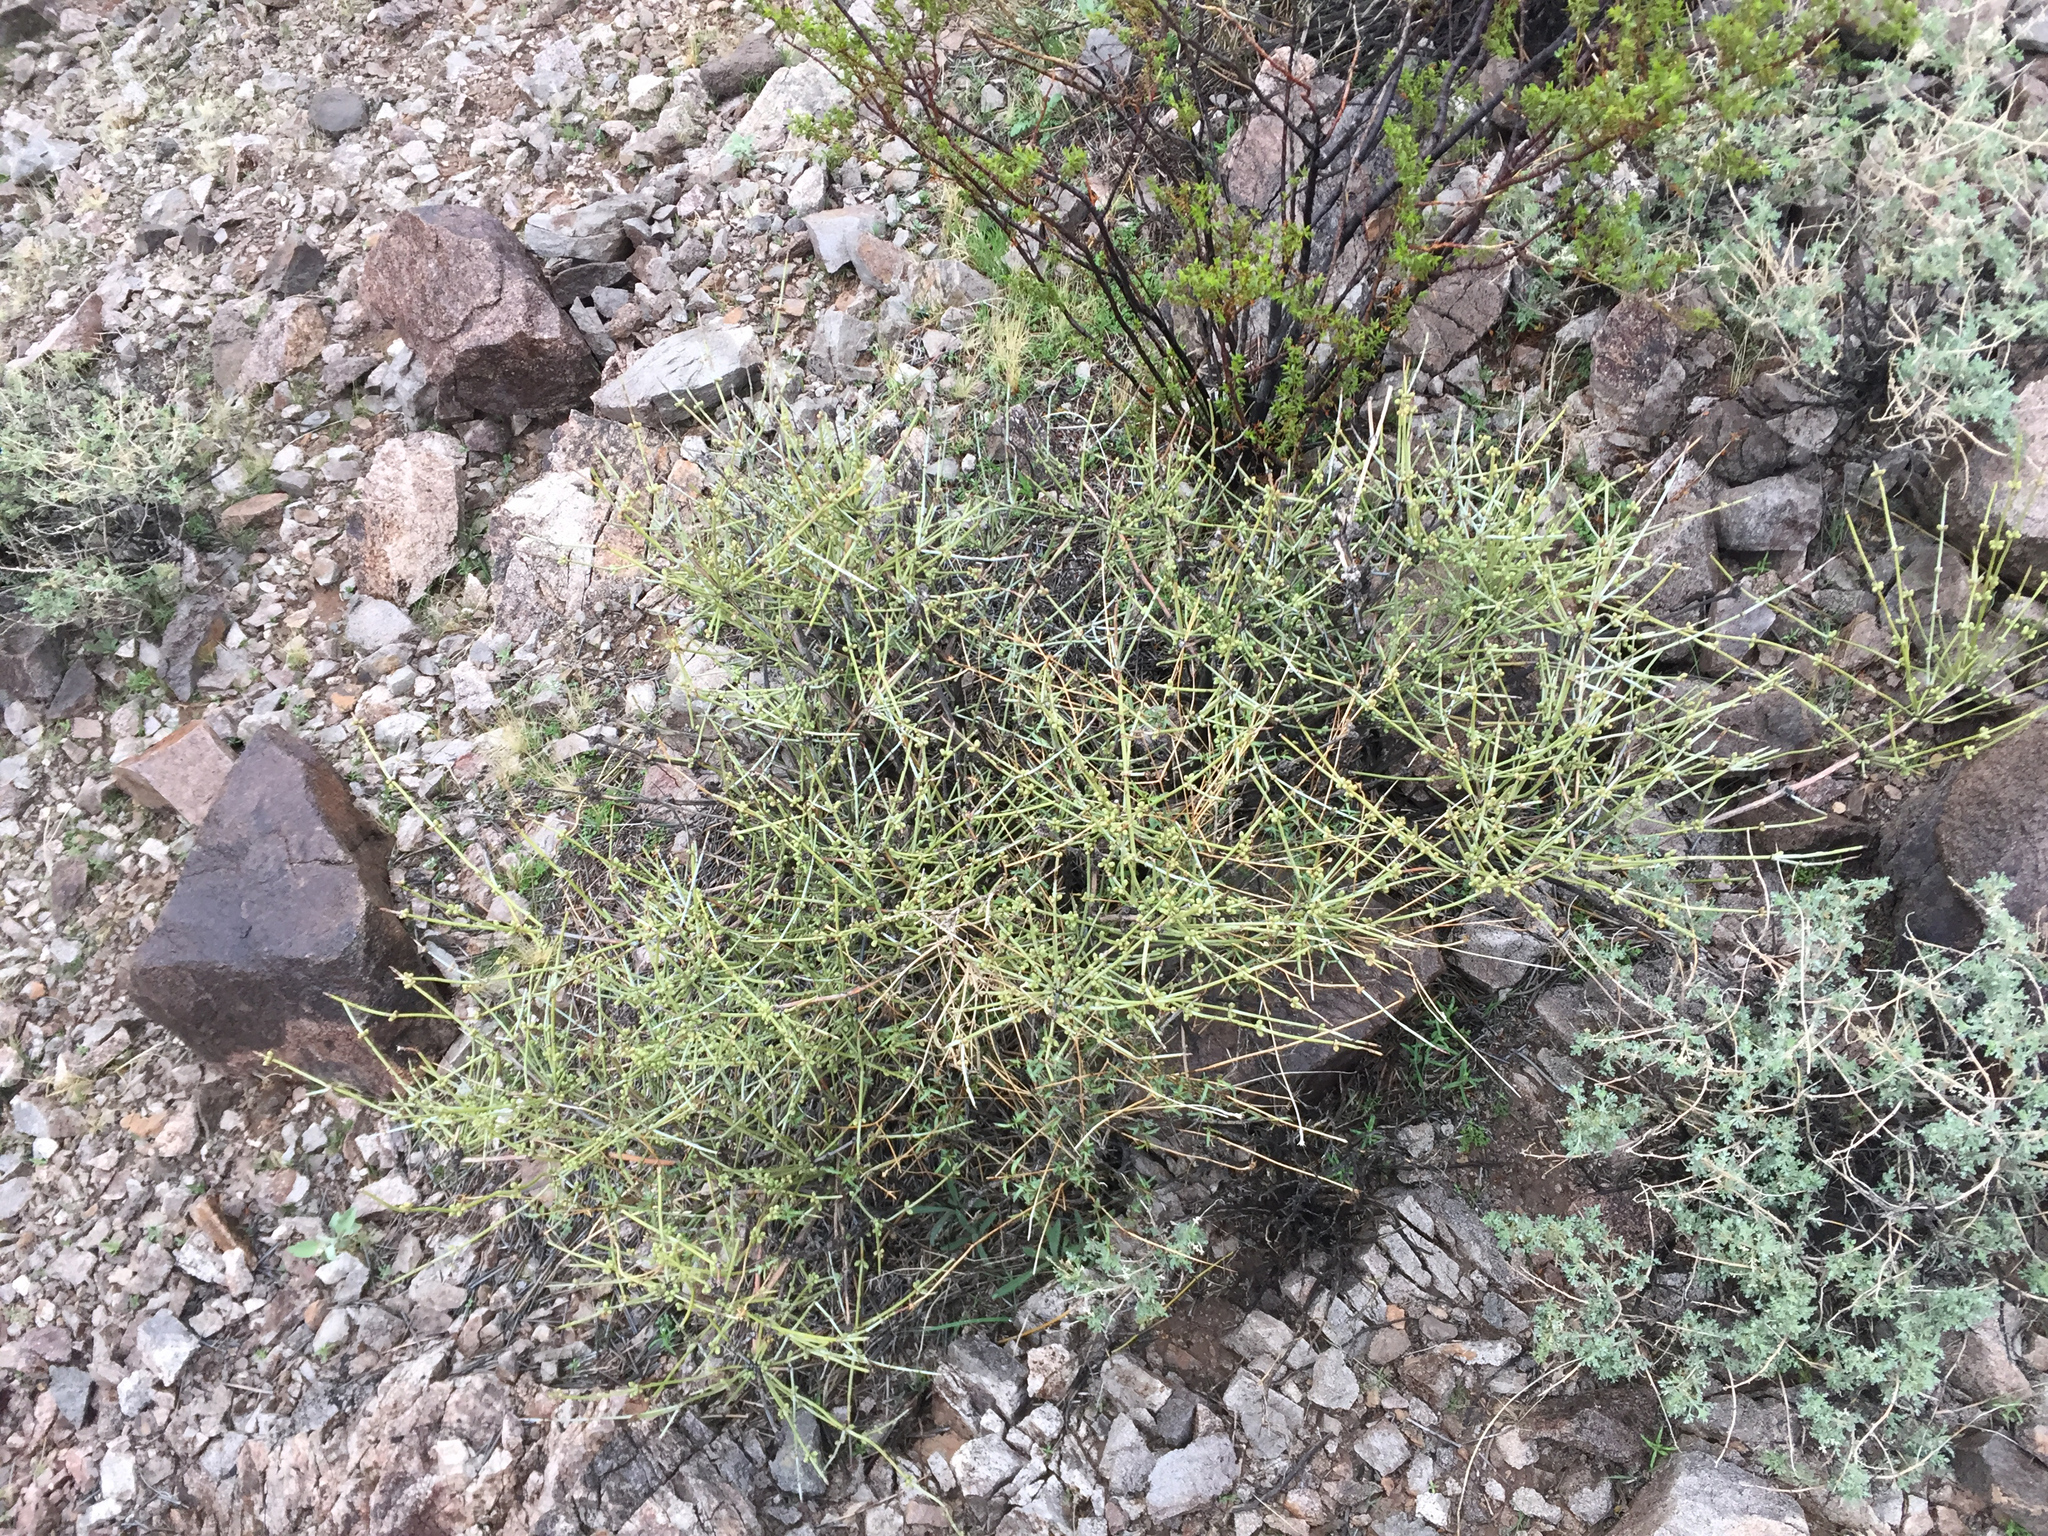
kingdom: Plantae
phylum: Tracheophyta
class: Gnetopsida
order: Ephedrales
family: Ephedraceae
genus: Ephedra
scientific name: Ephedra nevadensis
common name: Gray ephedra
